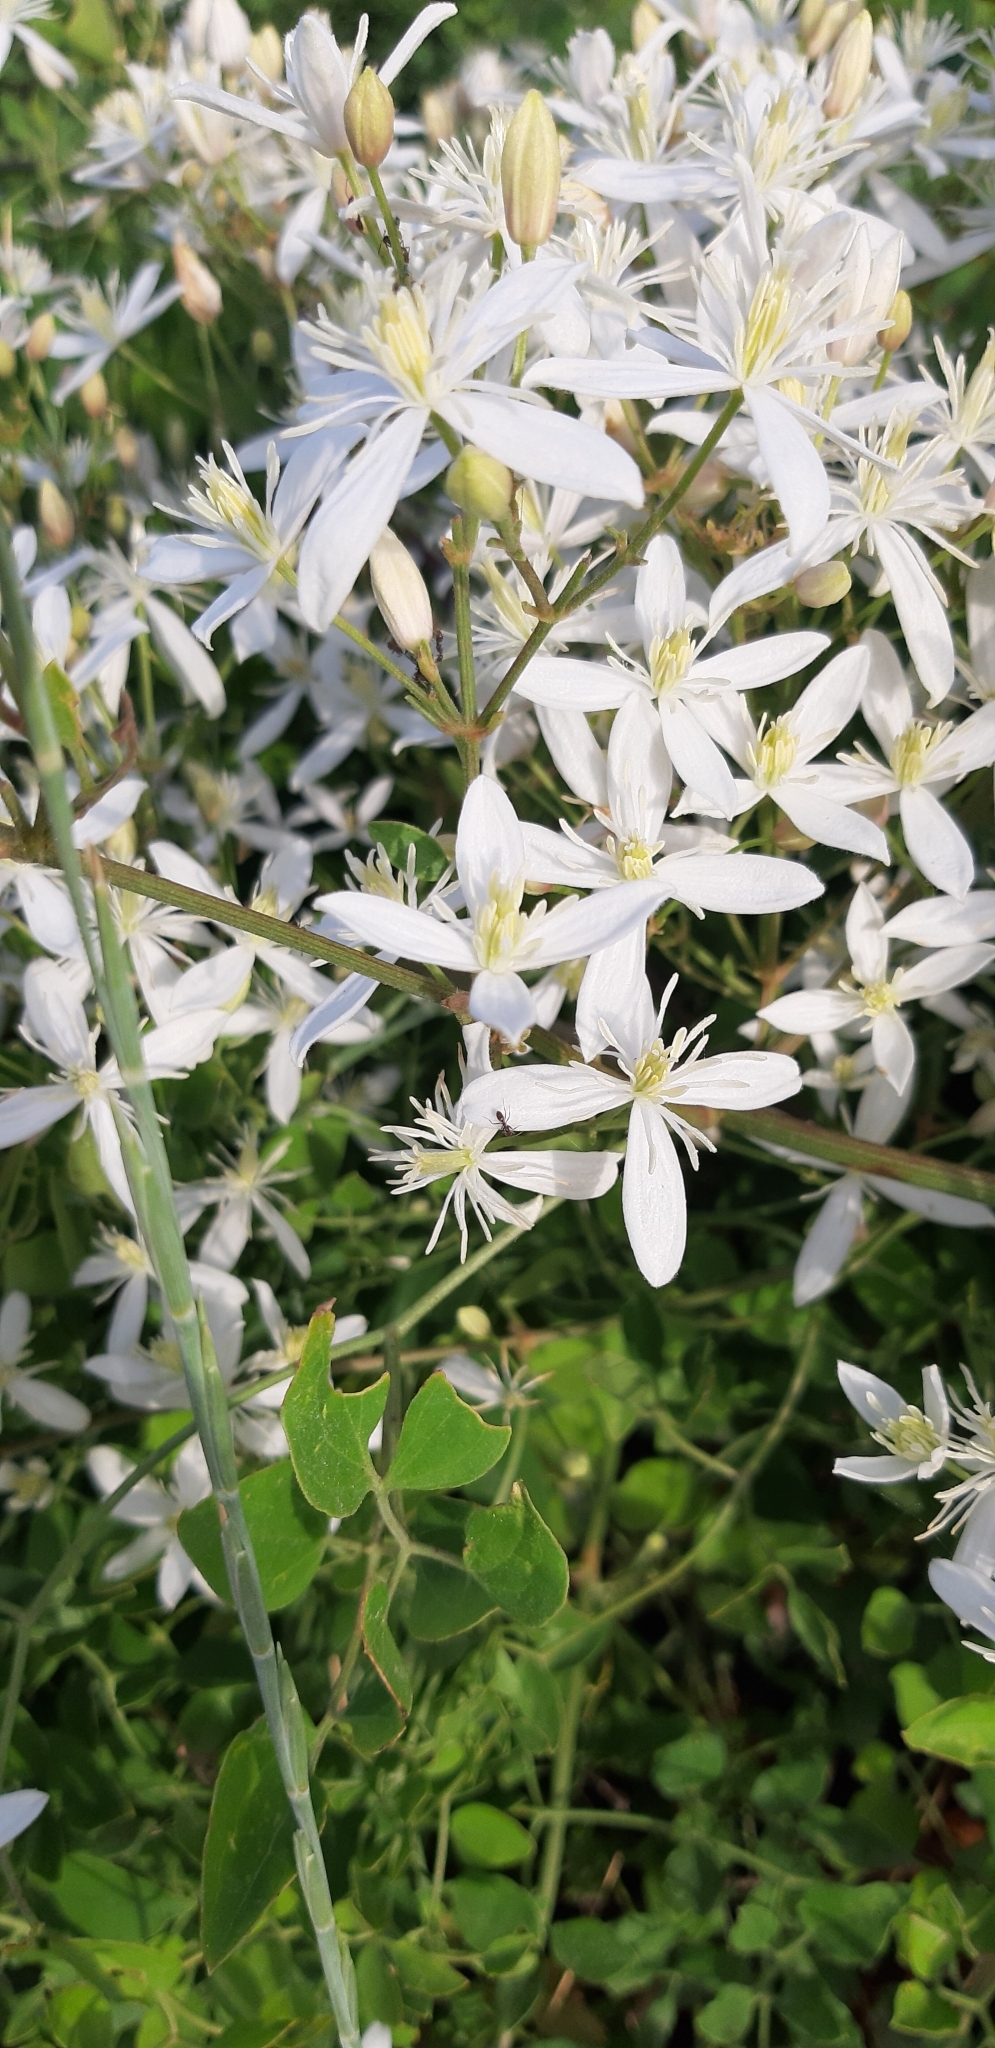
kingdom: Plantae
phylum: Tracheophyta
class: Magnoliopsida
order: Ranunculales
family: Ranunculaceae
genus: Clematis
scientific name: Clematis flammula
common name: Virgin's-bower
